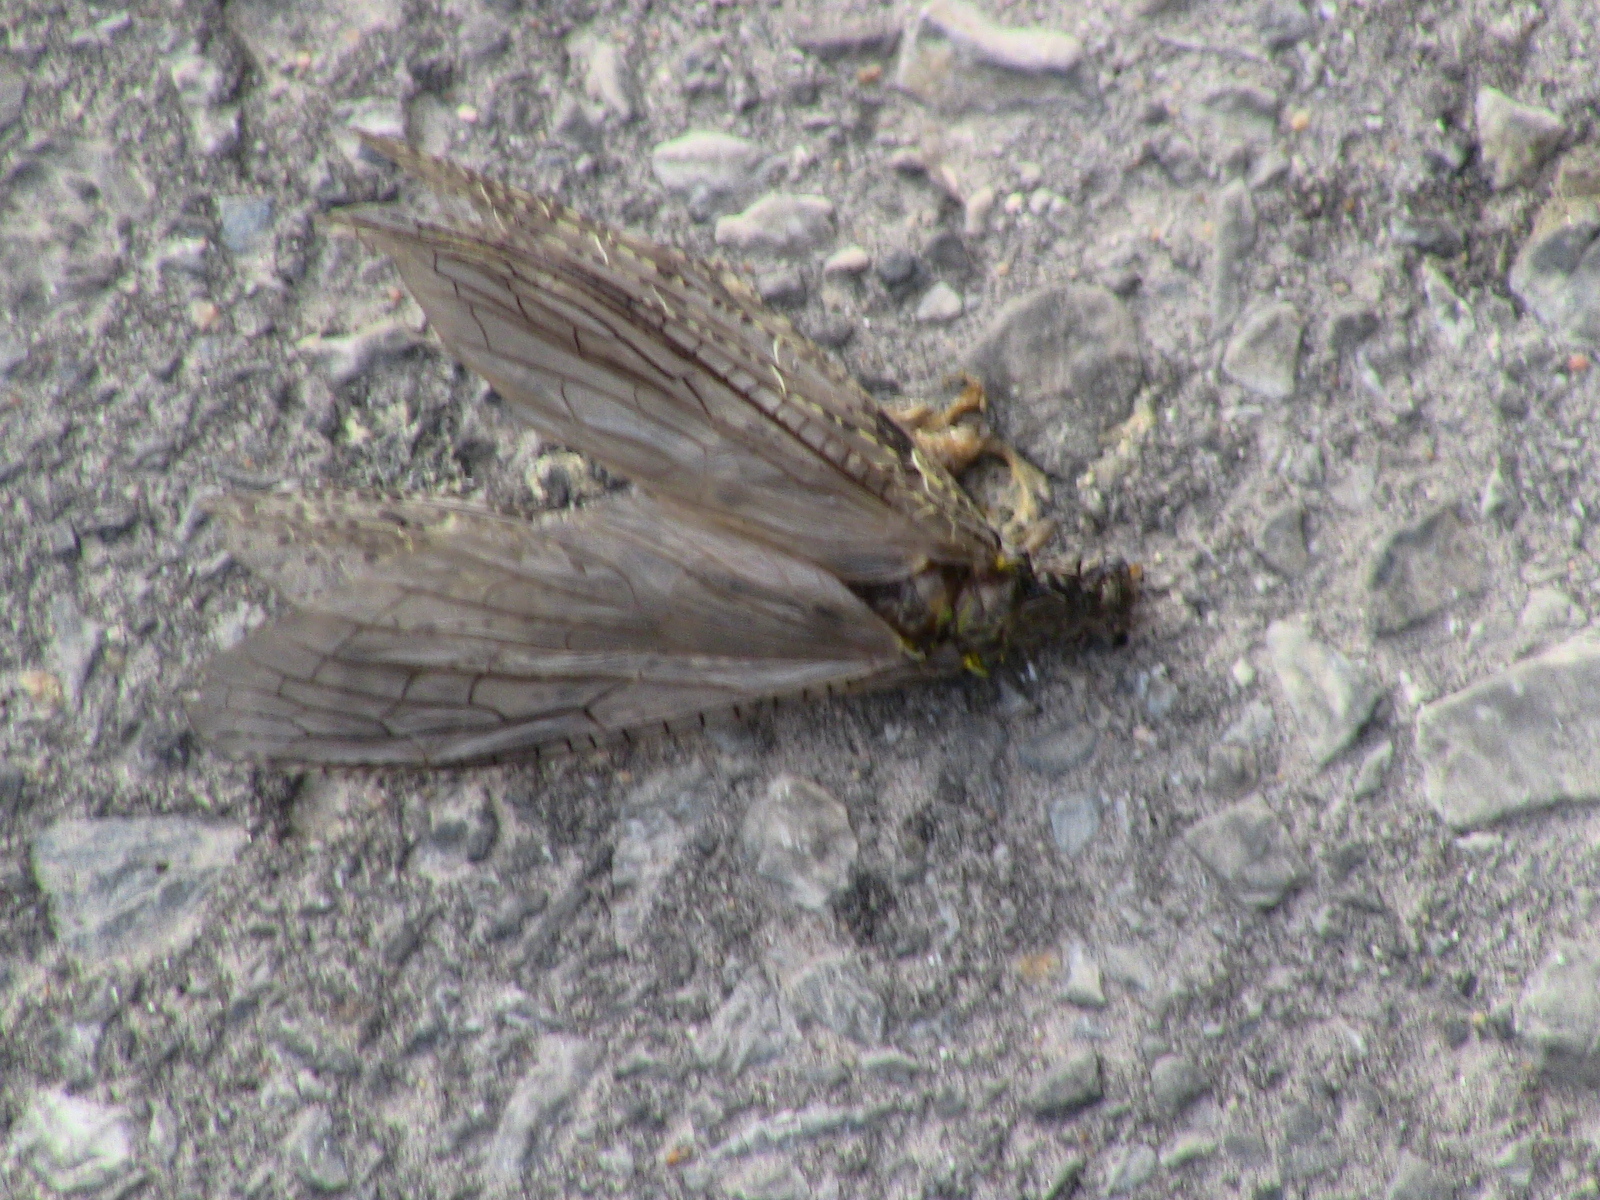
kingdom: Animalia
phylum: Arthropoda
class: Insecta
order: Megaloptera
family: Corydalidae
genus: Chauliodes
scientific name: Chauliodes
